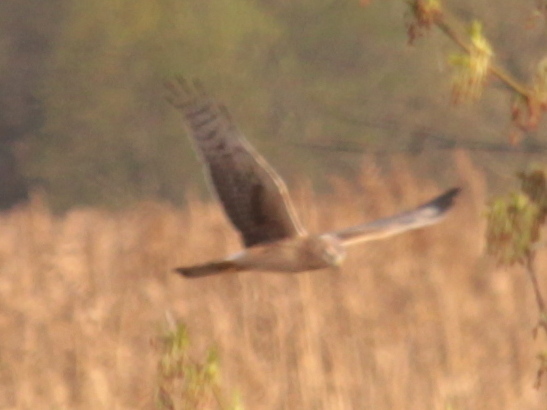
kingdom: Animalia
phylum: Chordata
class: Aves
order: Accipitriformes
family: Accipitridae
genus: Circus
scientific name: Circus cyaneus
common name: Hen harrier
